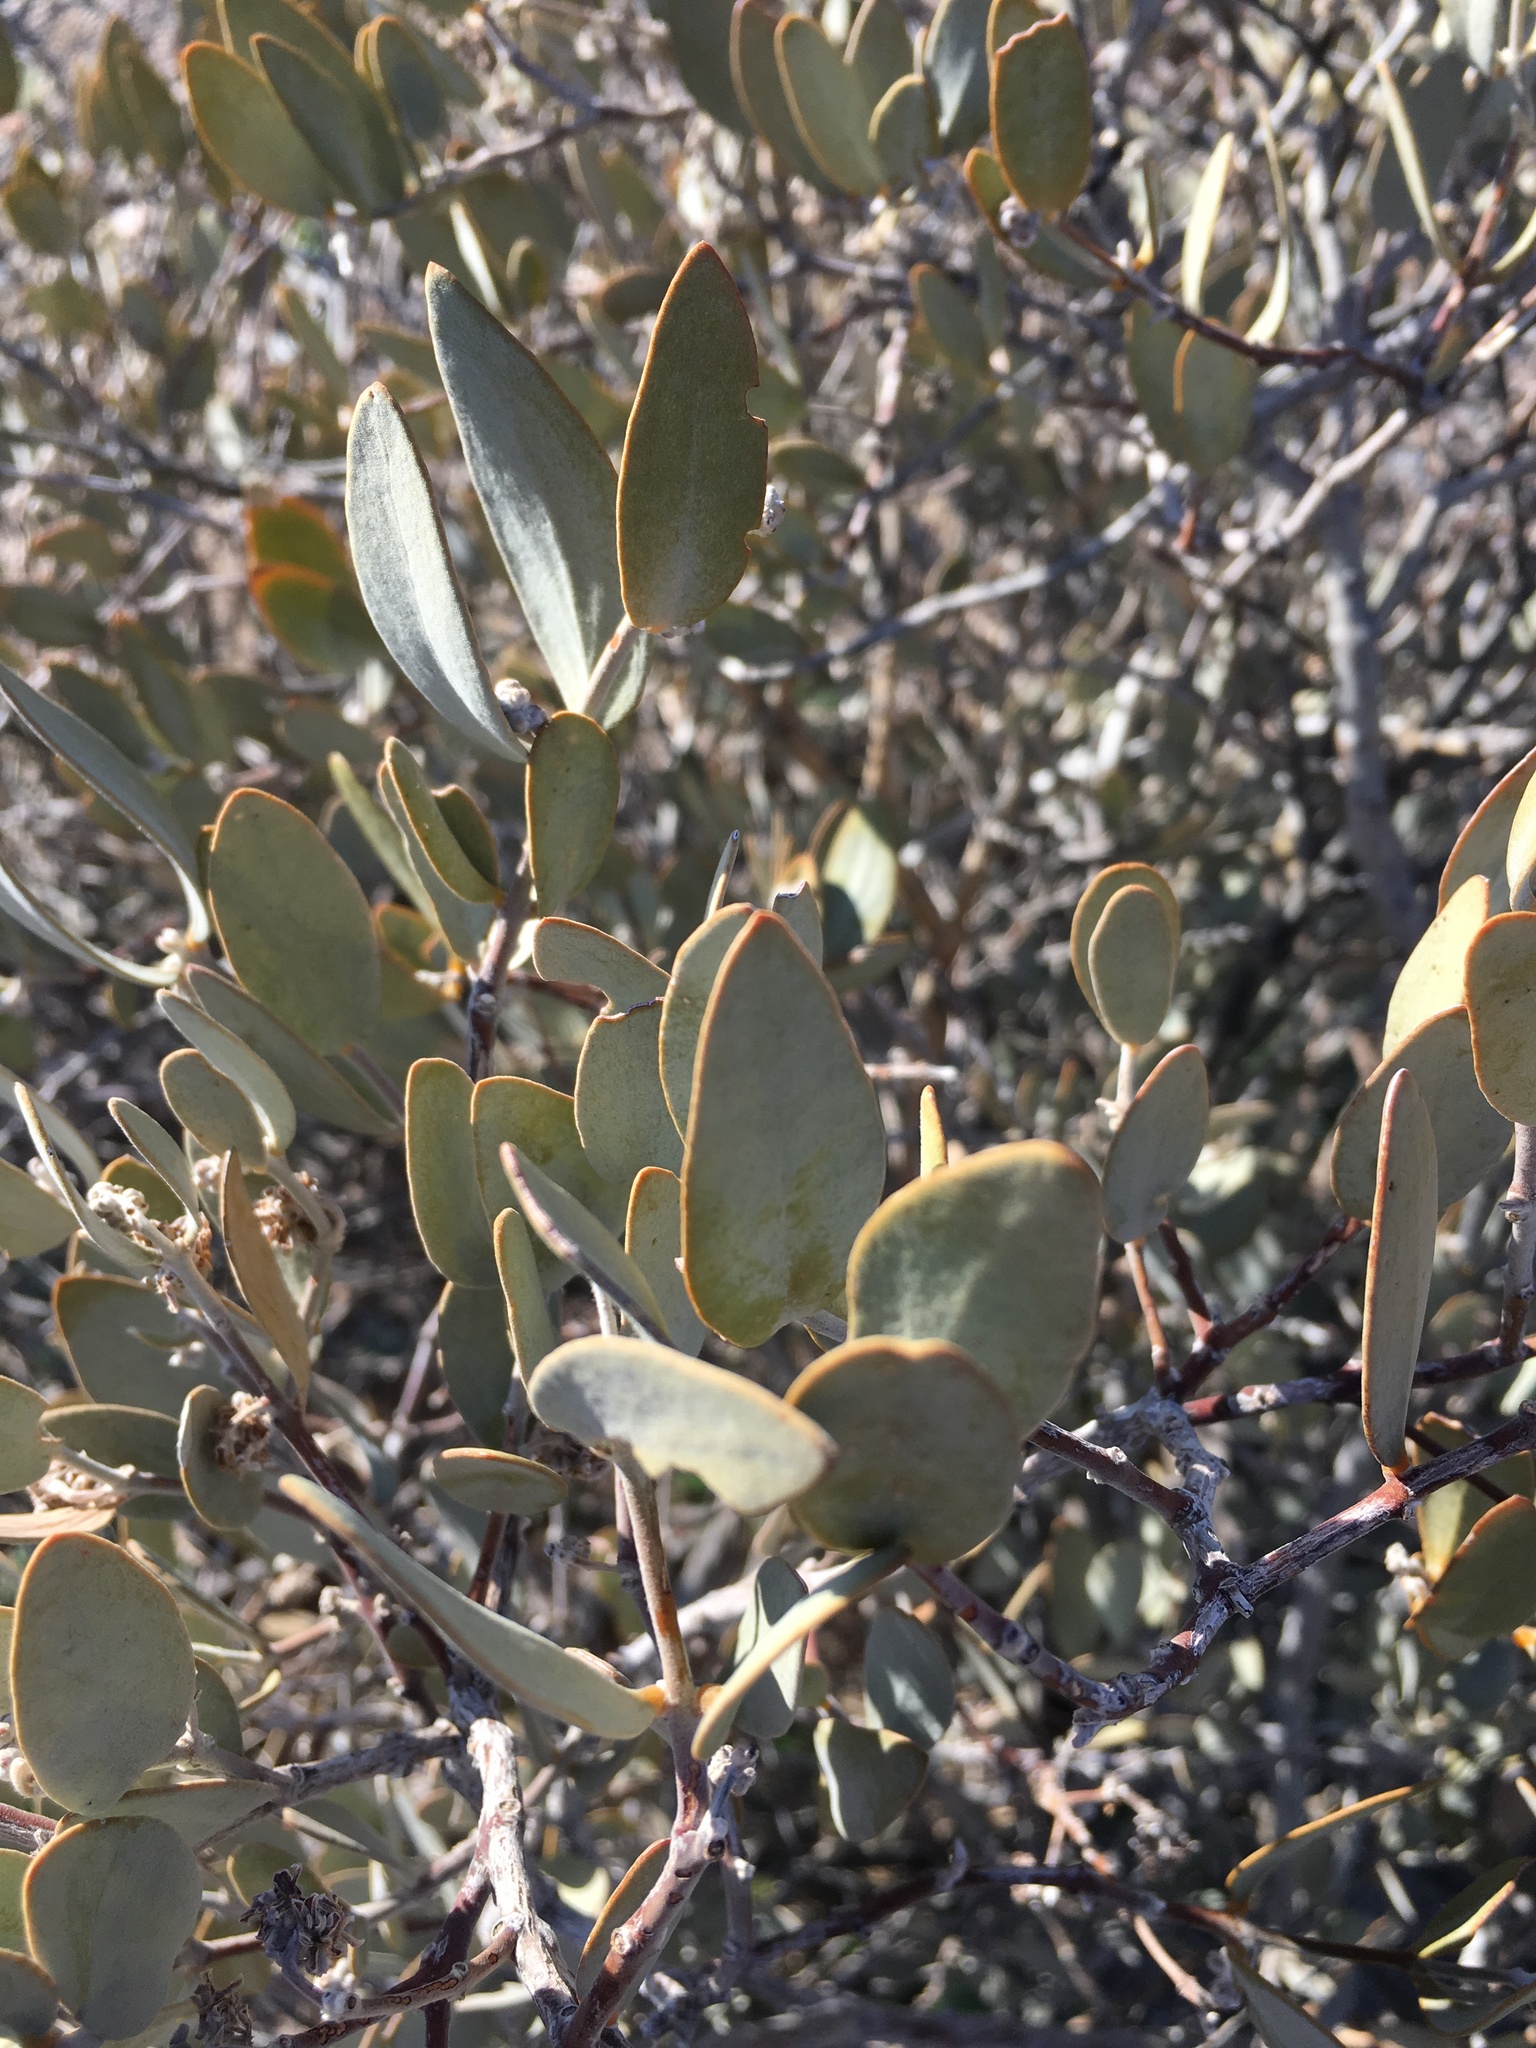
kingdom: Plantae
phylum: Tracheophyta
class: Magnoliopsida
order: Caryophyllales
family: Simmondsiaceae
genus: Simmondsia
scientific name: Simmondsia chinensis
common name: Jojoba
